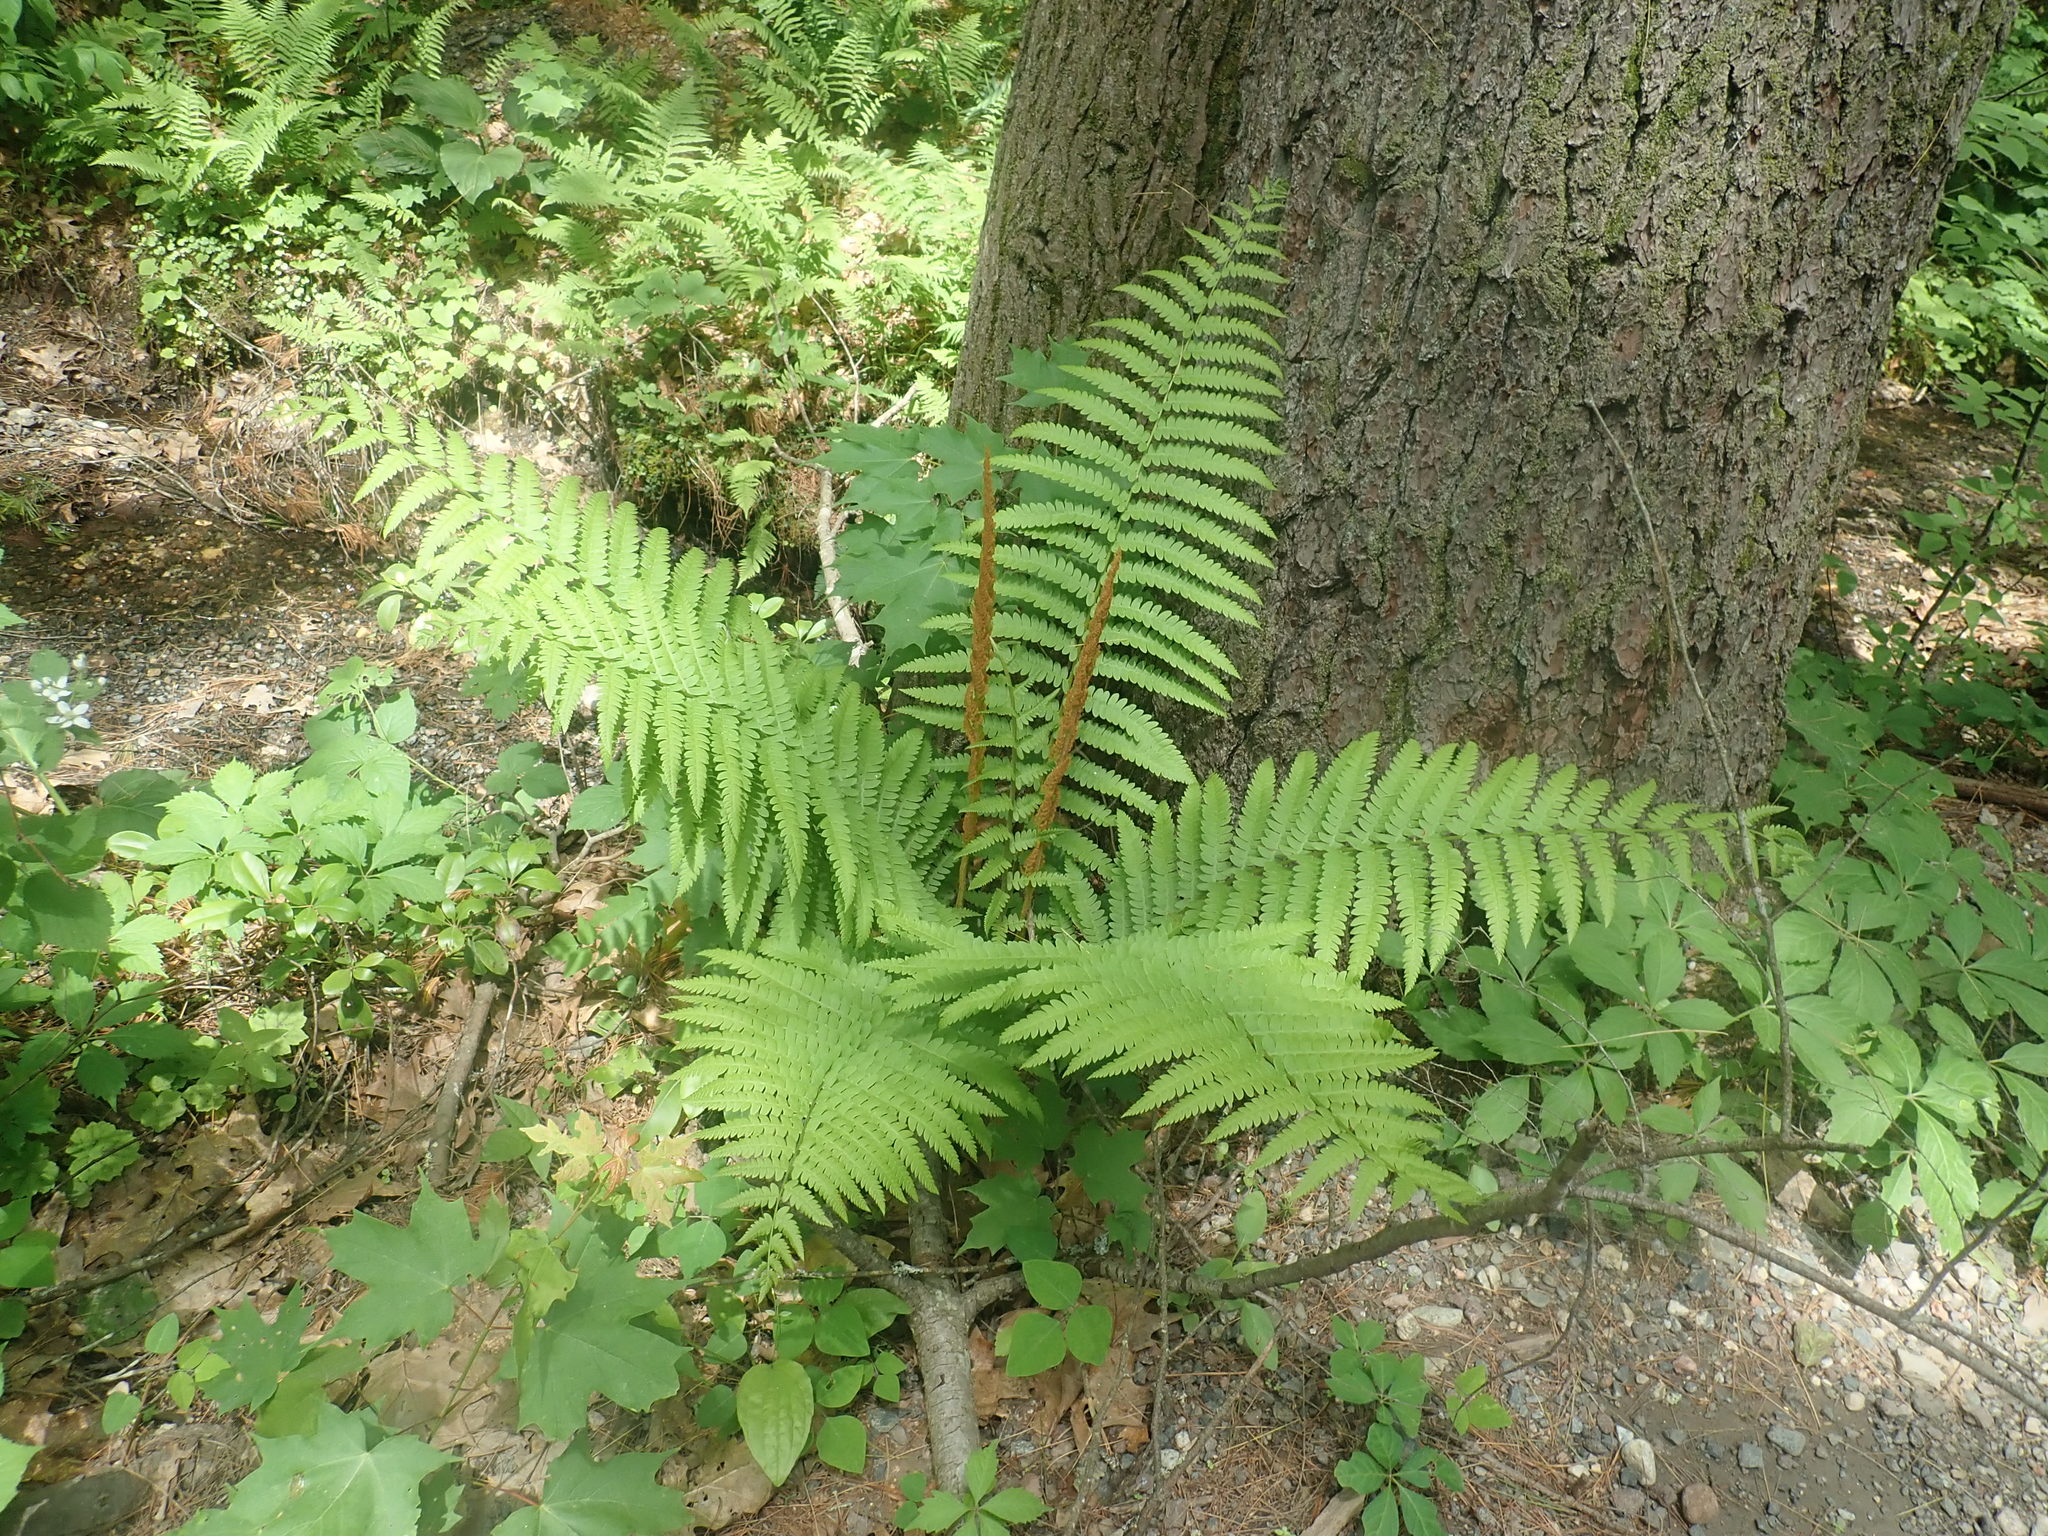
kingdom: Plantae
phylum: Tracheophyta
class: Polypodiopsida
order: Osmundales
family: Osmundaceae
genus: Osmundastrum
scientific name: Osmundastrum cinnamomeum
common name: Cinnamon fern
